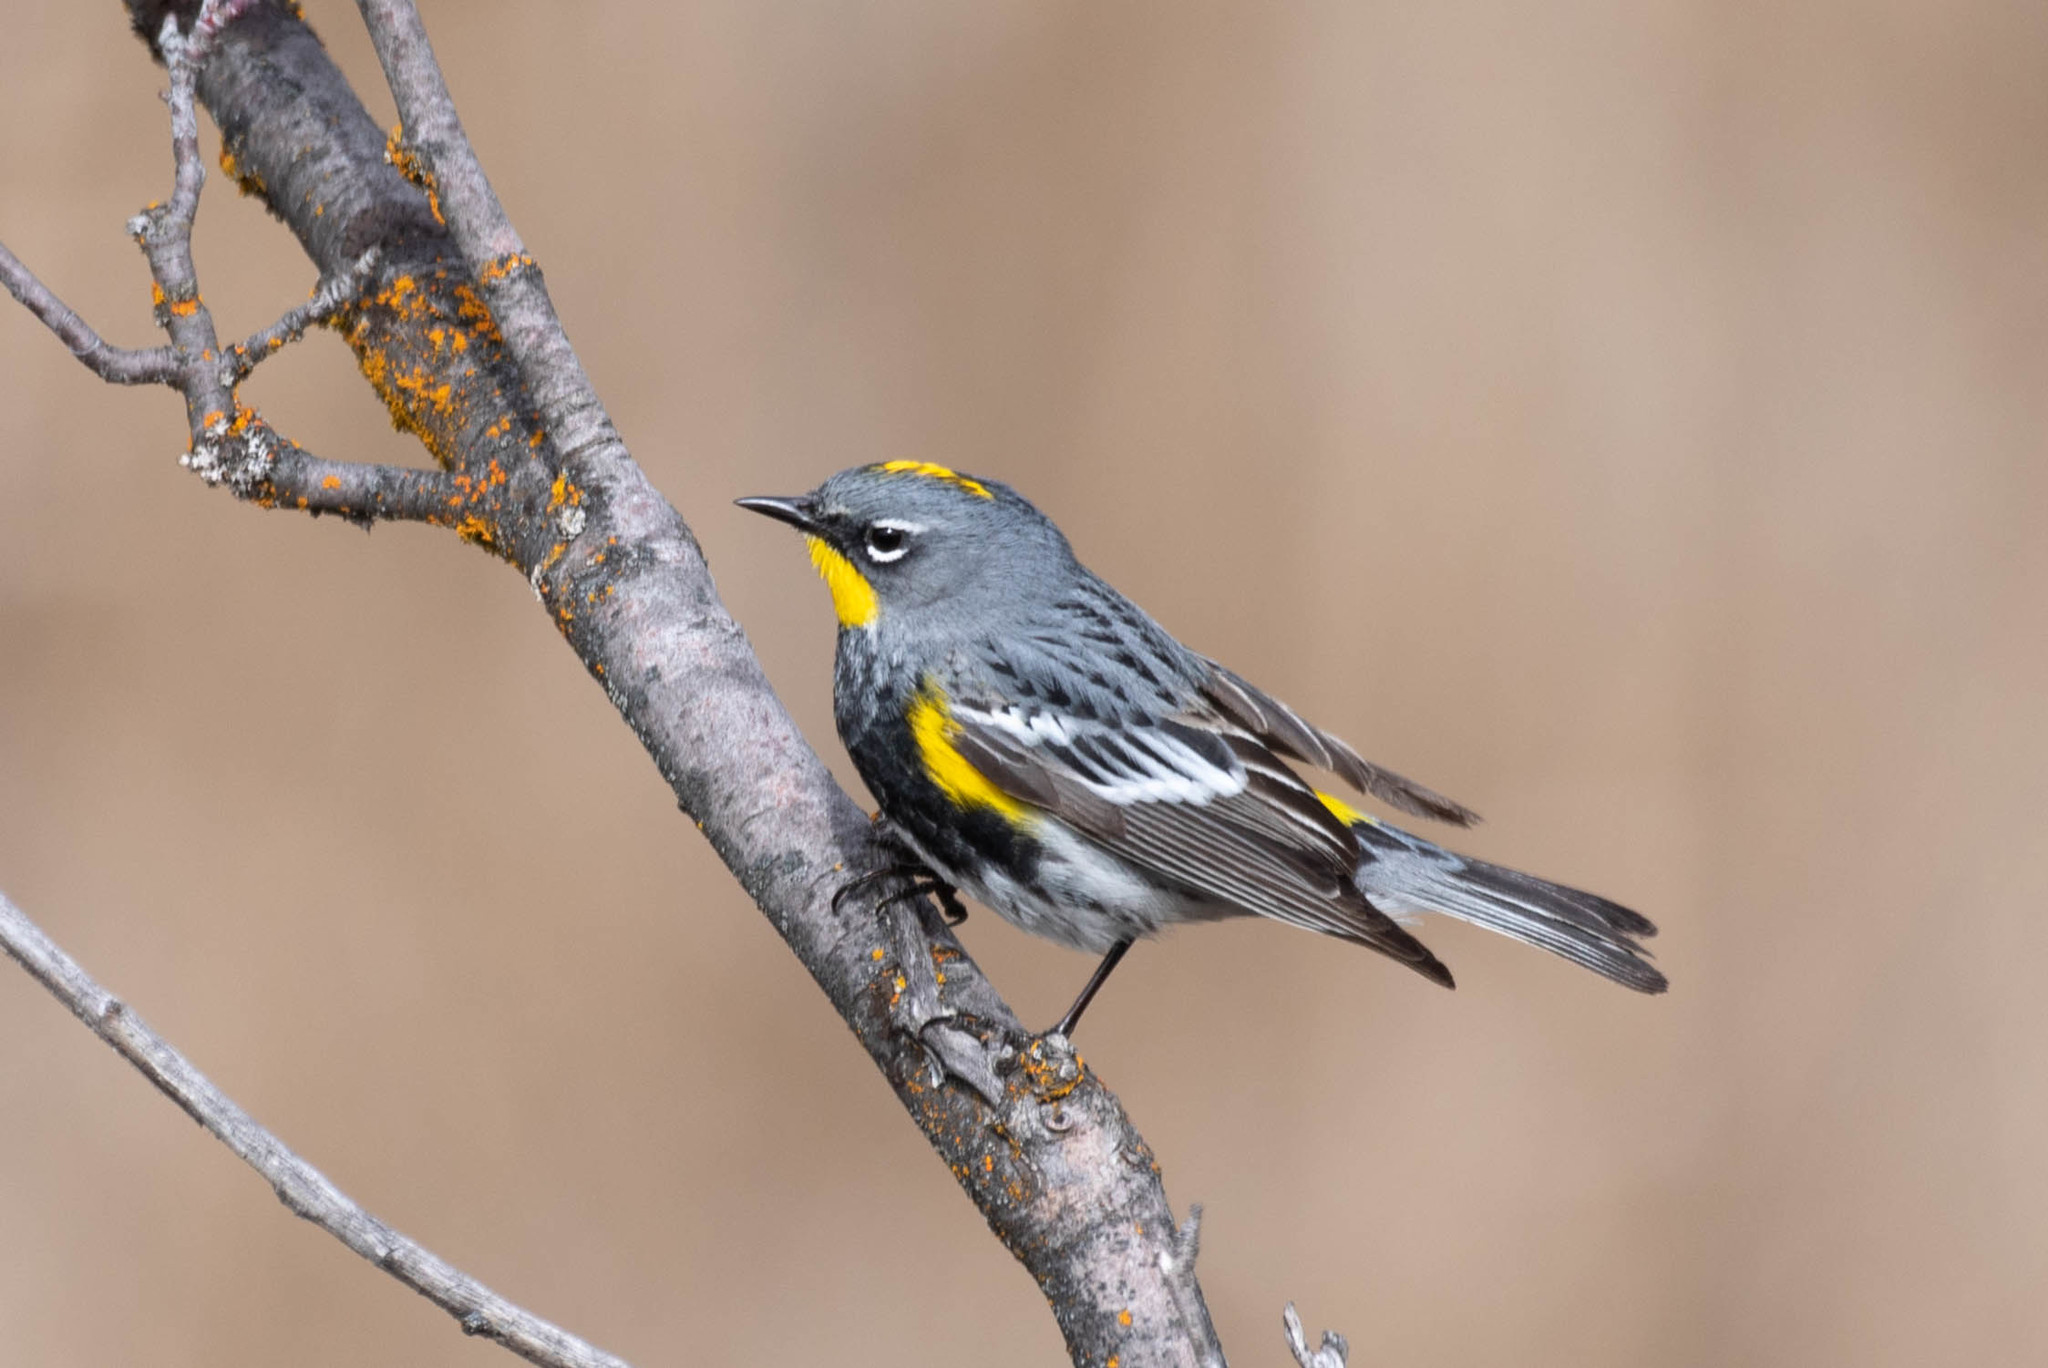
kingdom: Animalia
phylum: Chordata
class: Aves
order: Passeriformes
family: Parulidae
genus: Setophaga
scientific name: Setophaga auduboni
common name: Audubon's warbler
